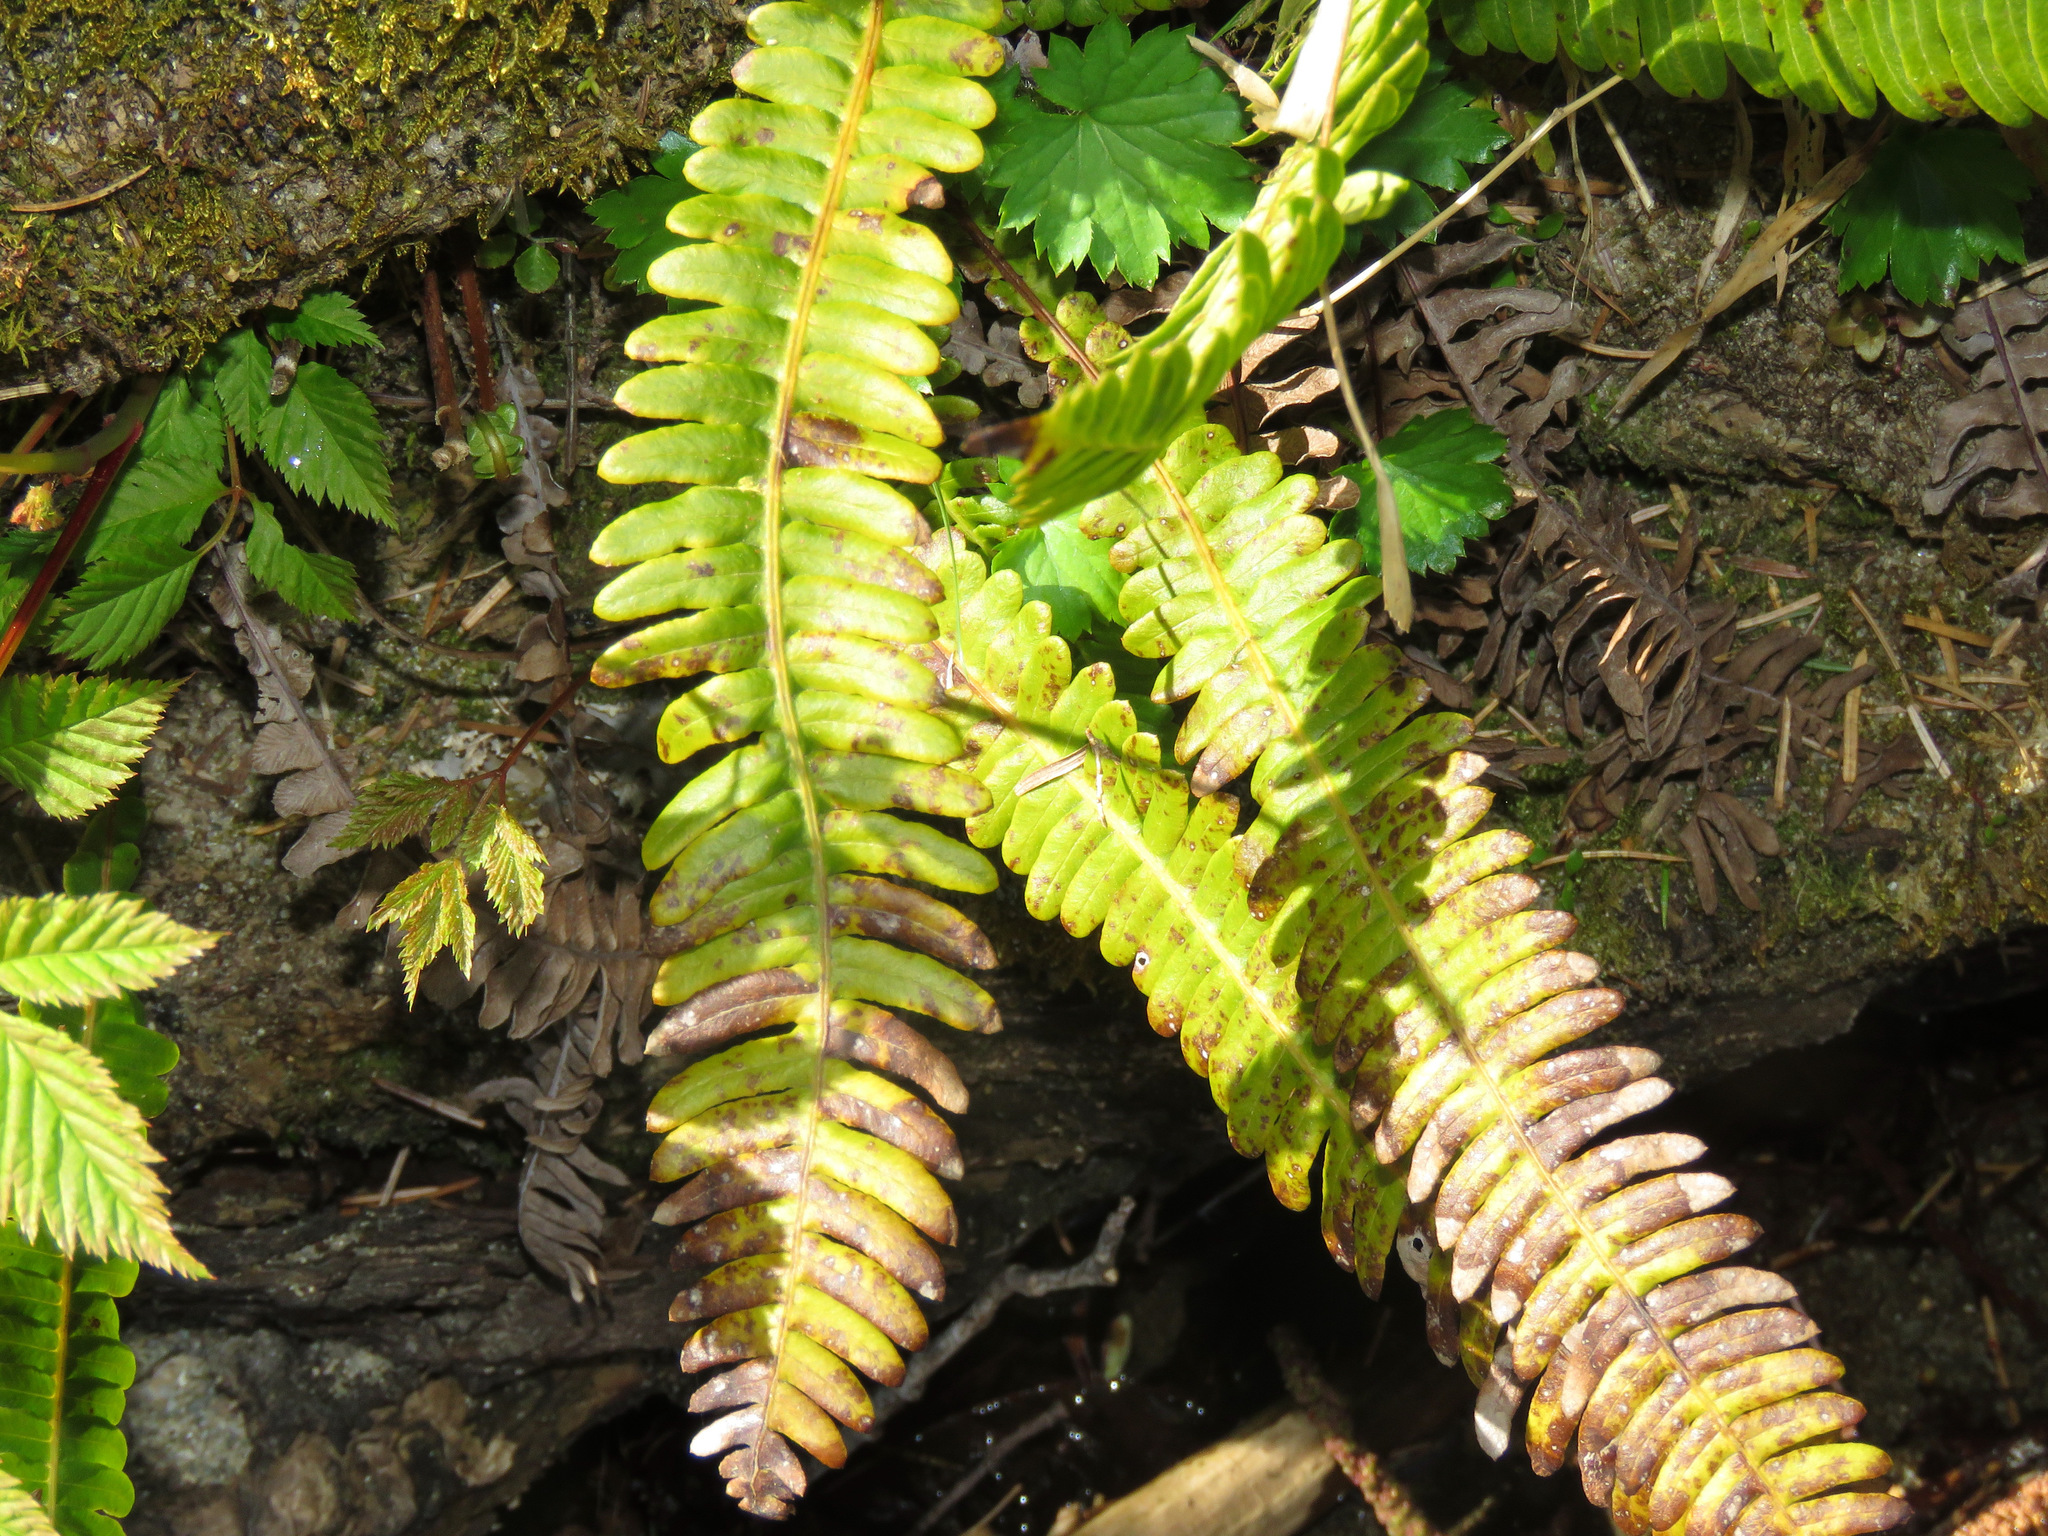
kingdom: Plantae
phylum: Tracheophyta
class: Polypodiopsida
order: Polypodiales
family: Blechnaceae
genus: Struthiopteris
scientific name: Struthiopteris spicant
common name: Deer fern
